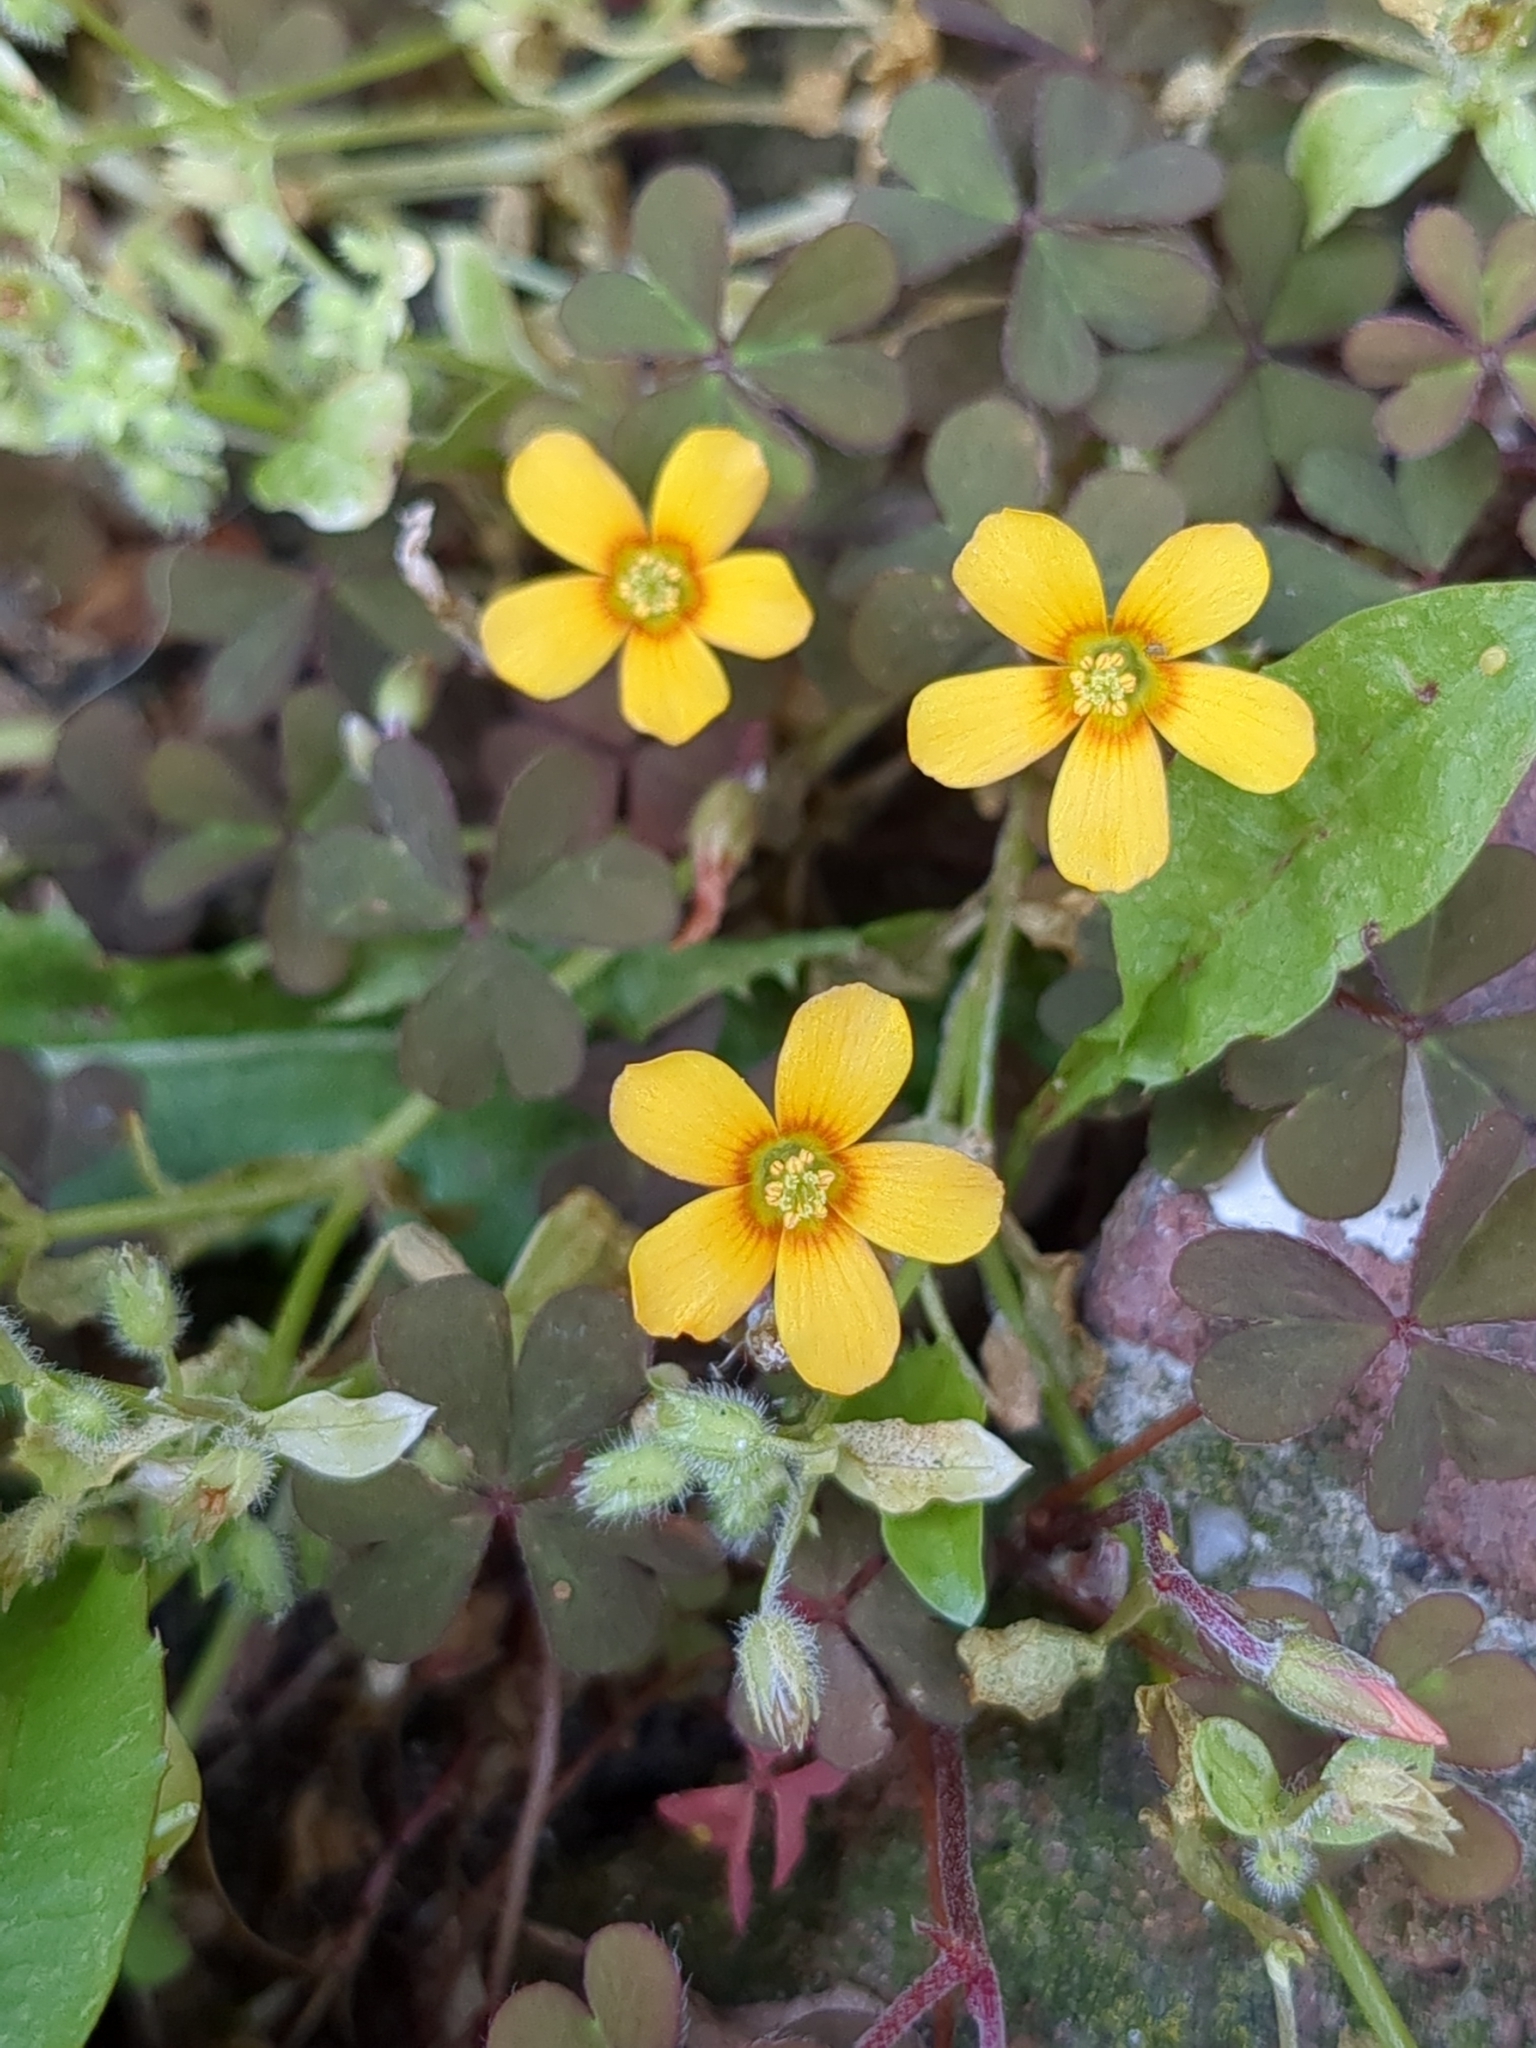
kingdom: Plantae
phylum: Tracheophyta
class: Magnoliopsida
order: Oxalidales
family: Oxalidaceae
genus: Oxalis
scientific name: Oxalis corniculata
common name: Procumbent yellow-sorrel
